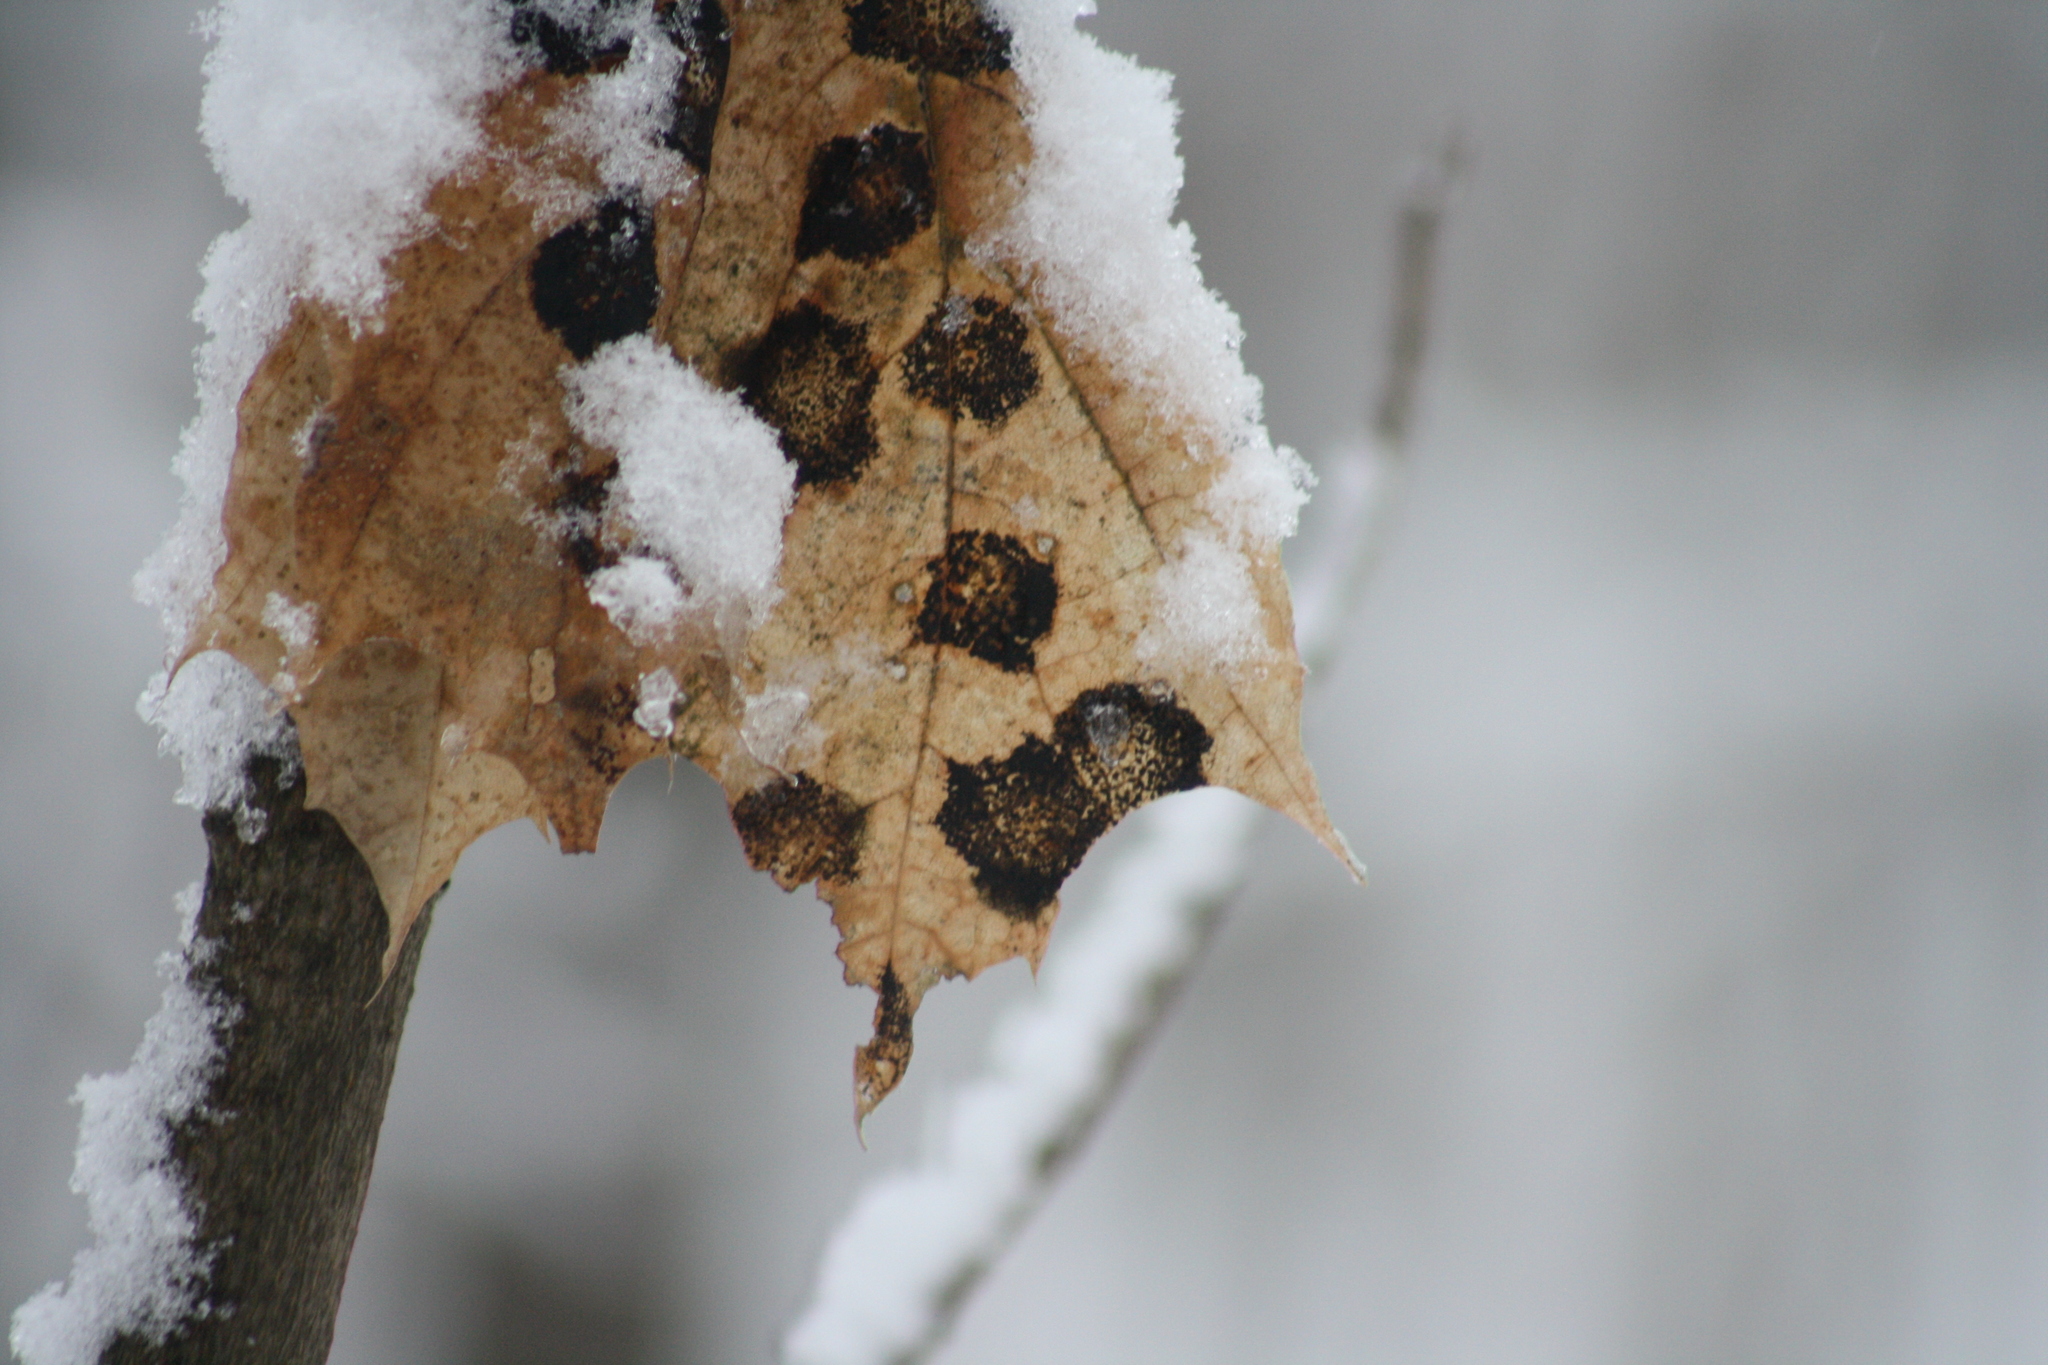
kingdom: Fungi
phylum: Ascomycota
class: Leotiomycetes
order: Rhytismatales
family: Rhytismataceae
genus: Rhytisma
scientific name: Rhytisma acerinum
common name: European tar spot
